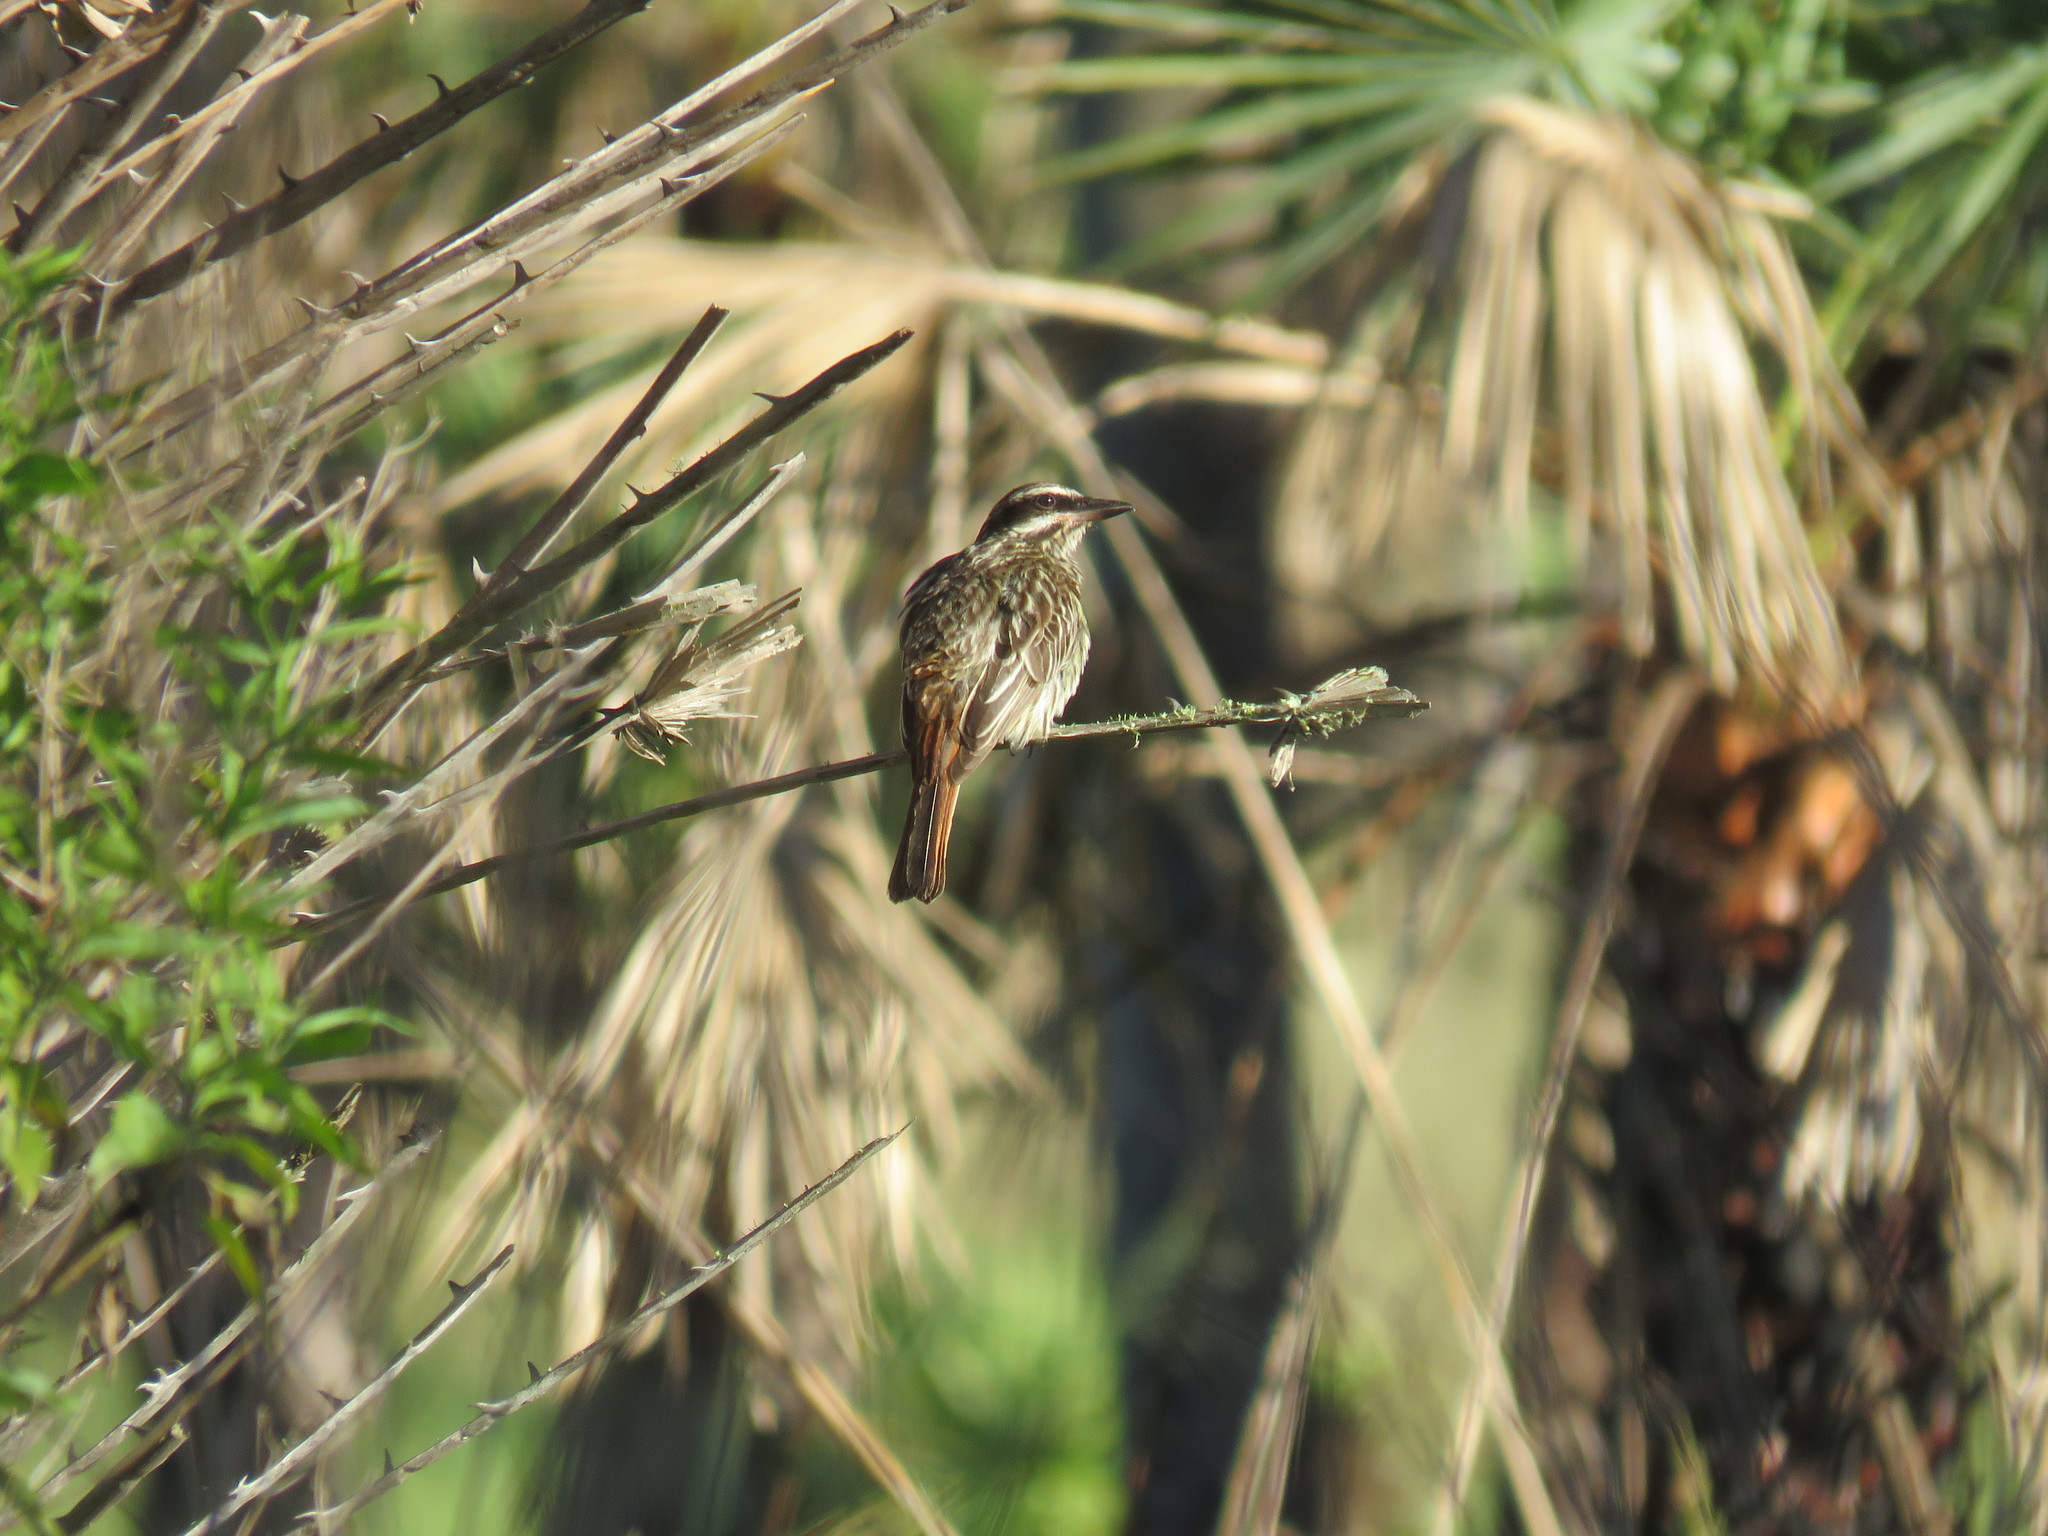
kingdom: Animalia
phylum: Chordata
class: Aves
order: Passeriformes
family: Tyrannidae
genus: Myiodynastes
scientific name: Myiodynastes maculatus
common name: Streaked flycatcher
